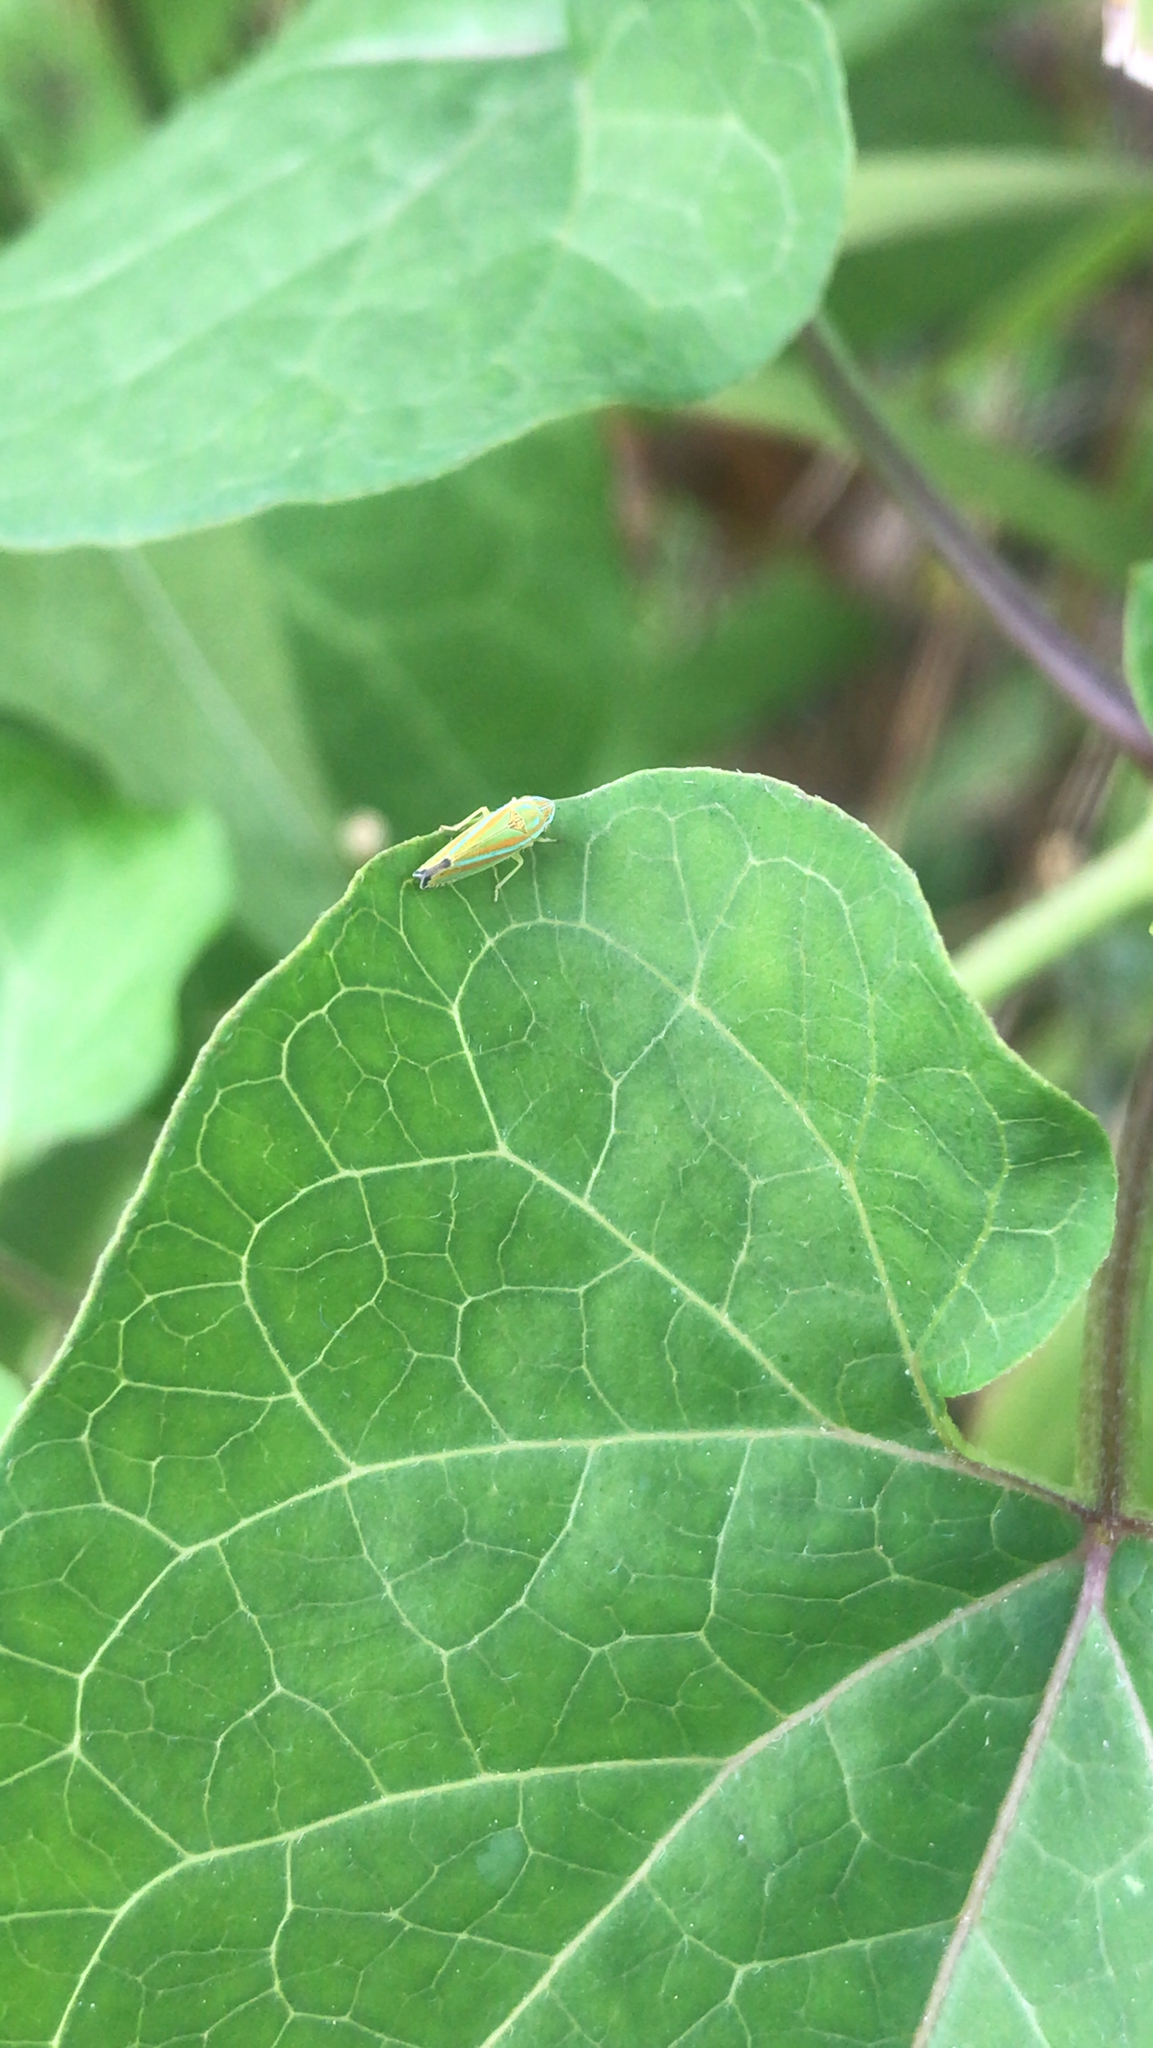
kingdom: Animalia
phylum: Arthropoda
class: Insecta
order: Hemiptera
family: Cicadellidae
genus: Graphocephala
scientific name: Graphocephala versuta
